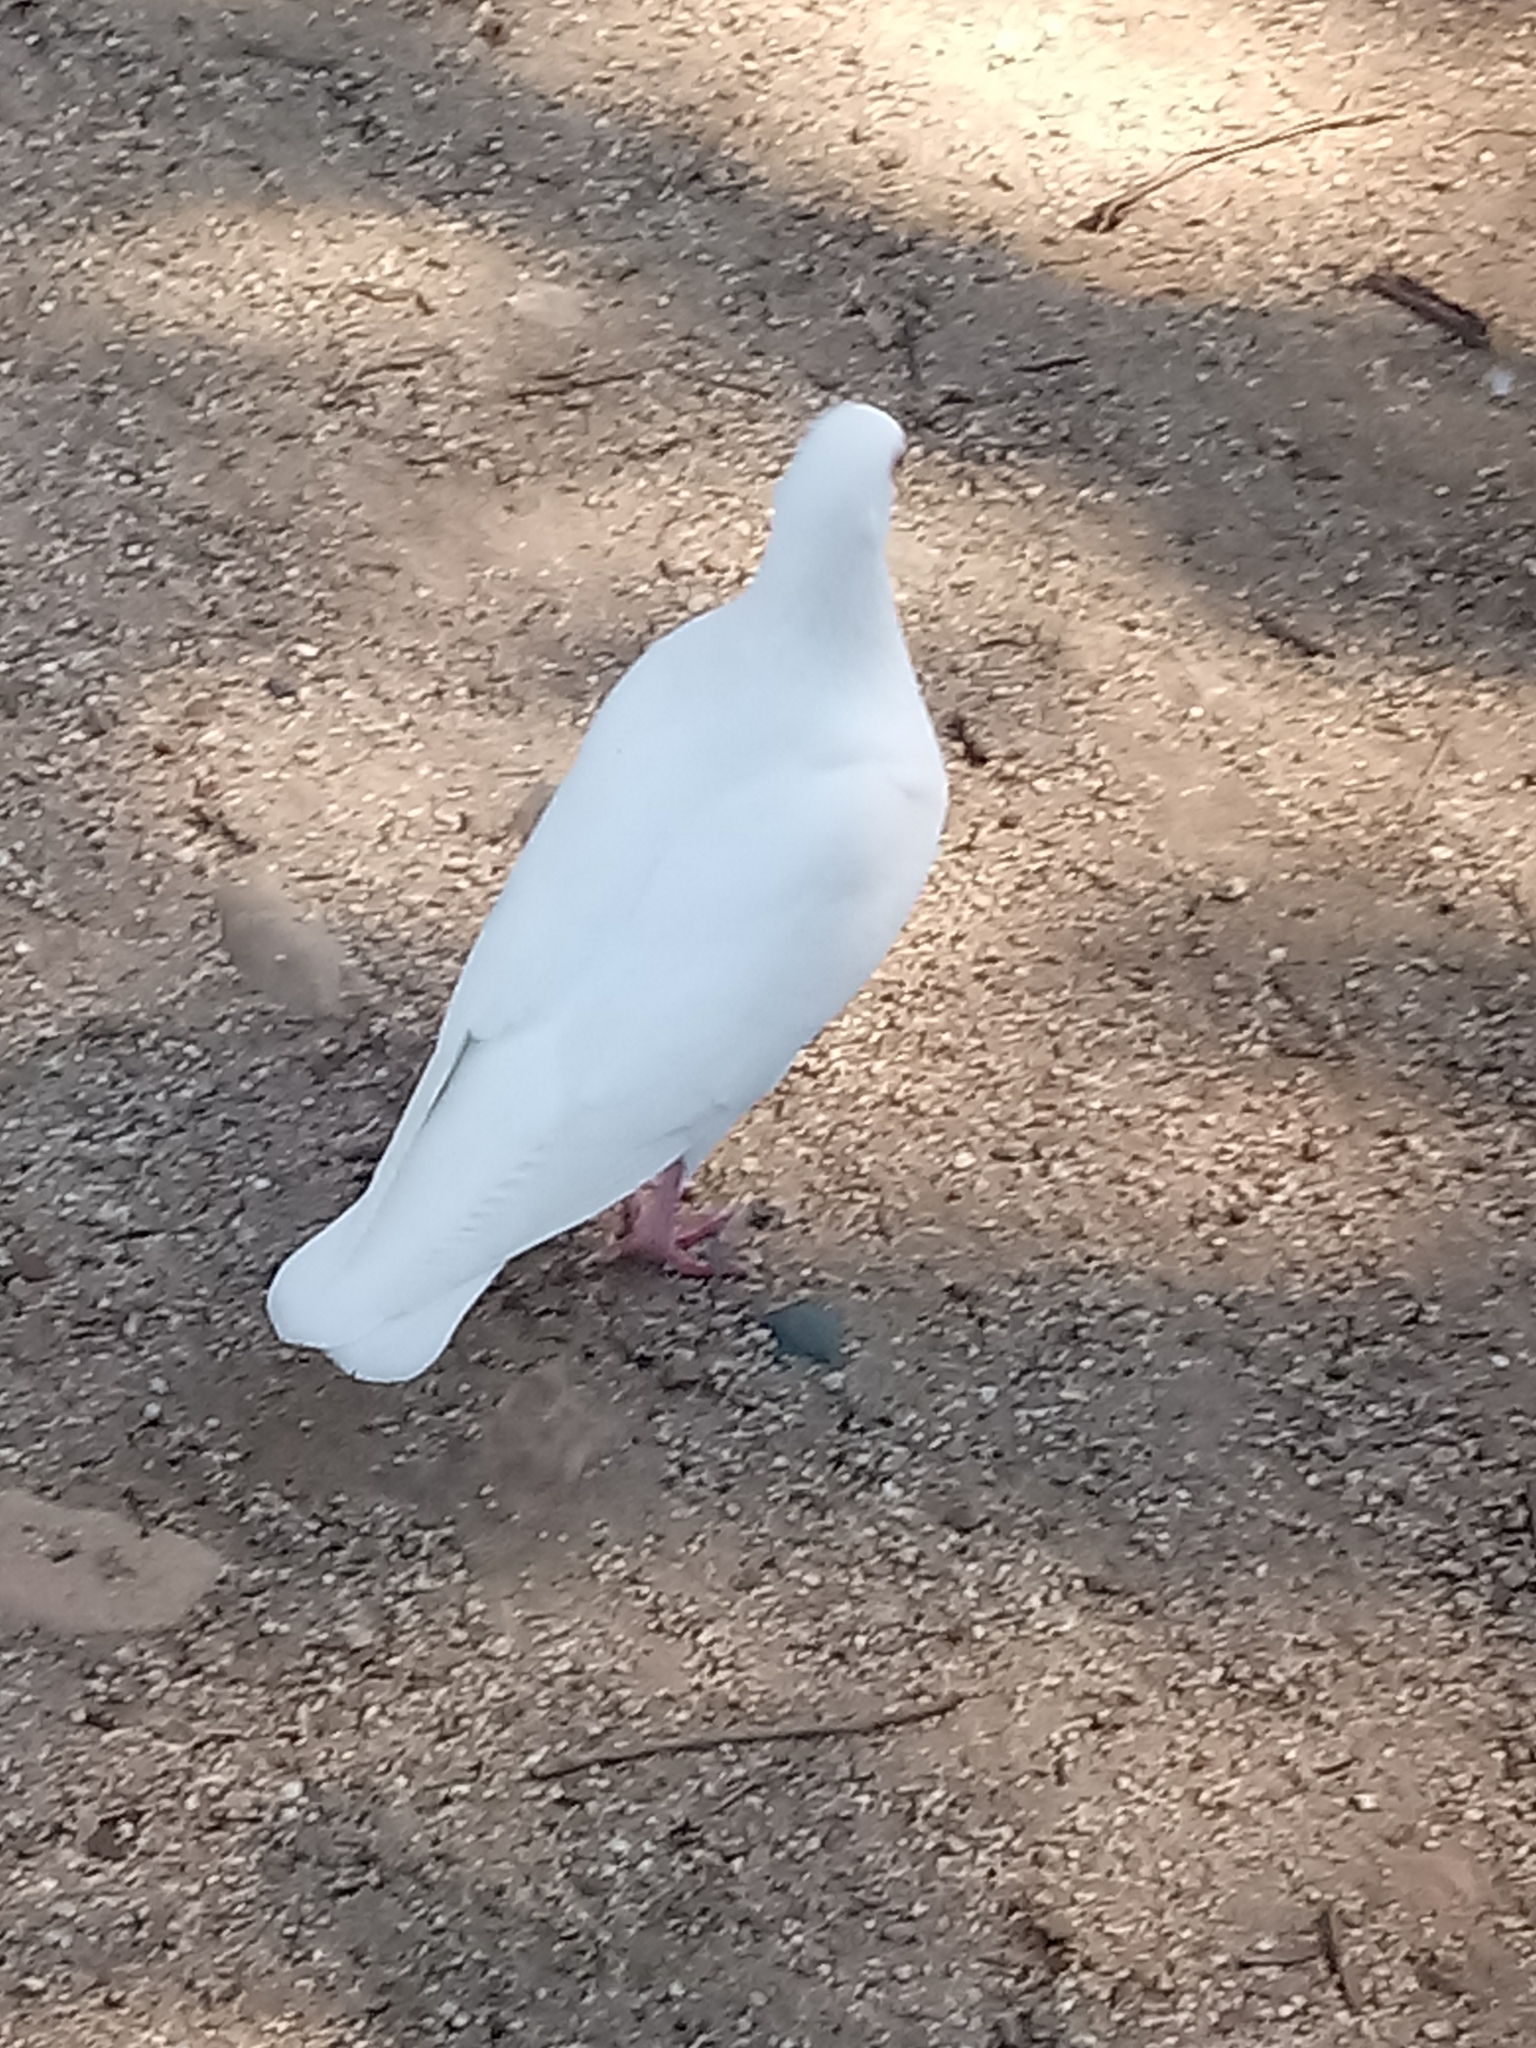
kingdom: Animalia
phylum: Chordata
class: Aves
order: Columbiformes
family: Columbidae
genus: Columba
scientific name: Columba livia
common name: Rock pigeon
